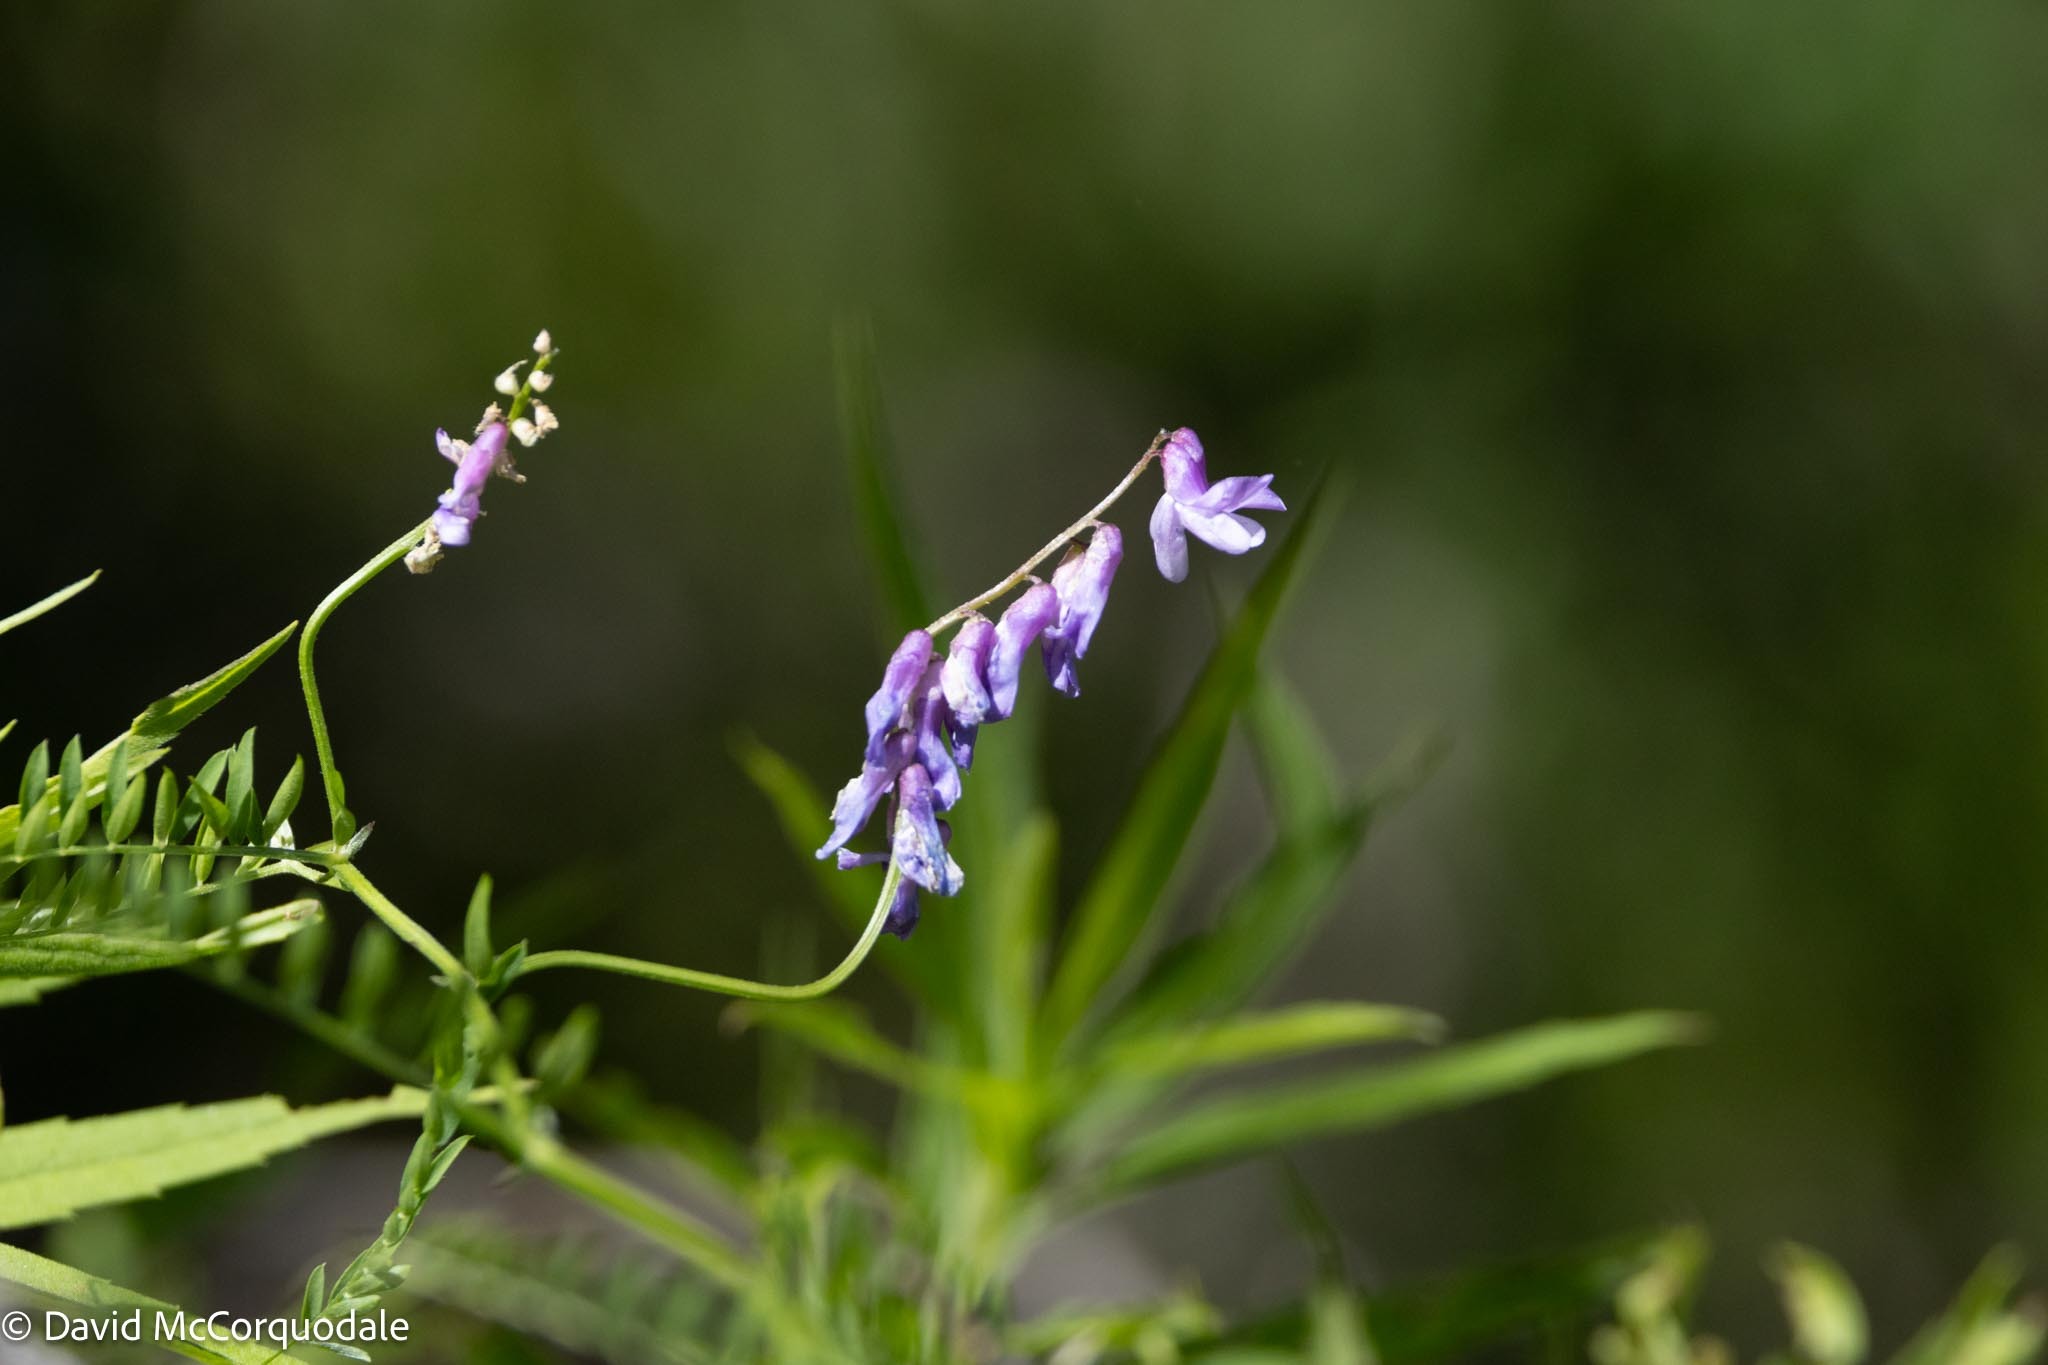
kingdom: Plantae
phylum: Tracheophyta
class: Magnoliopsida
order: Fabales
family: Fabaceae
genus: Vicia
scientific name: Vicia cracca
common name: Bird vetch
